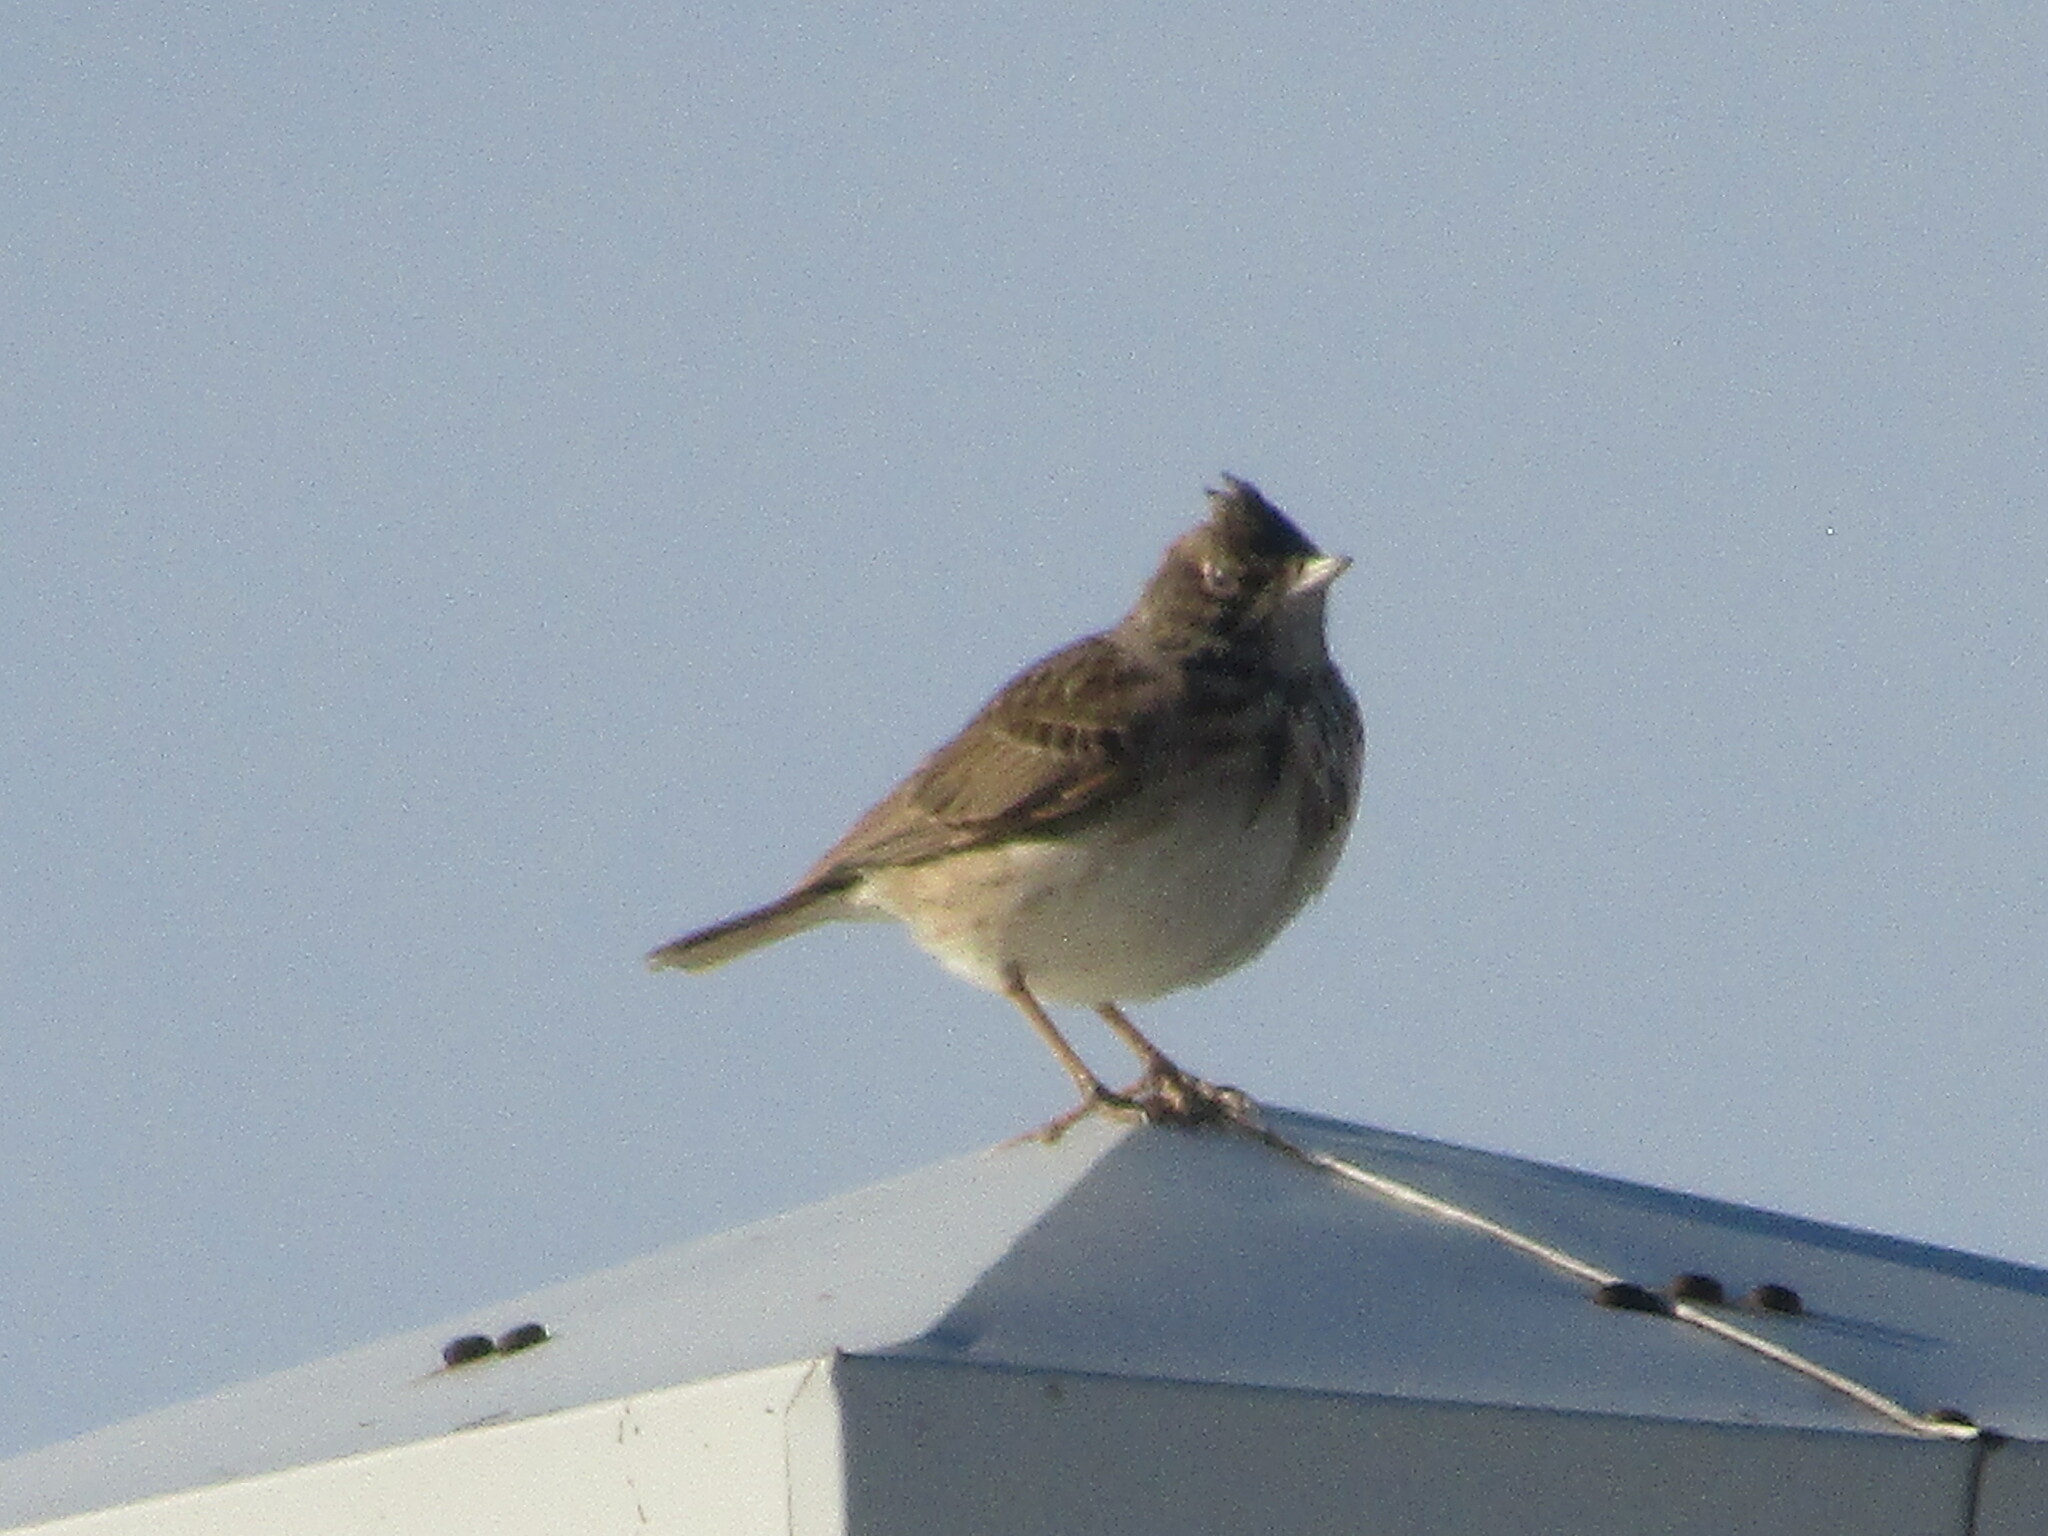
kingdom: Animalia
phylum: Chordata
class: Aves
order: Passeriformes
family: Alaudidae
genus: Galerida
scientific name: Galerida cristata
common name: Crested lark
